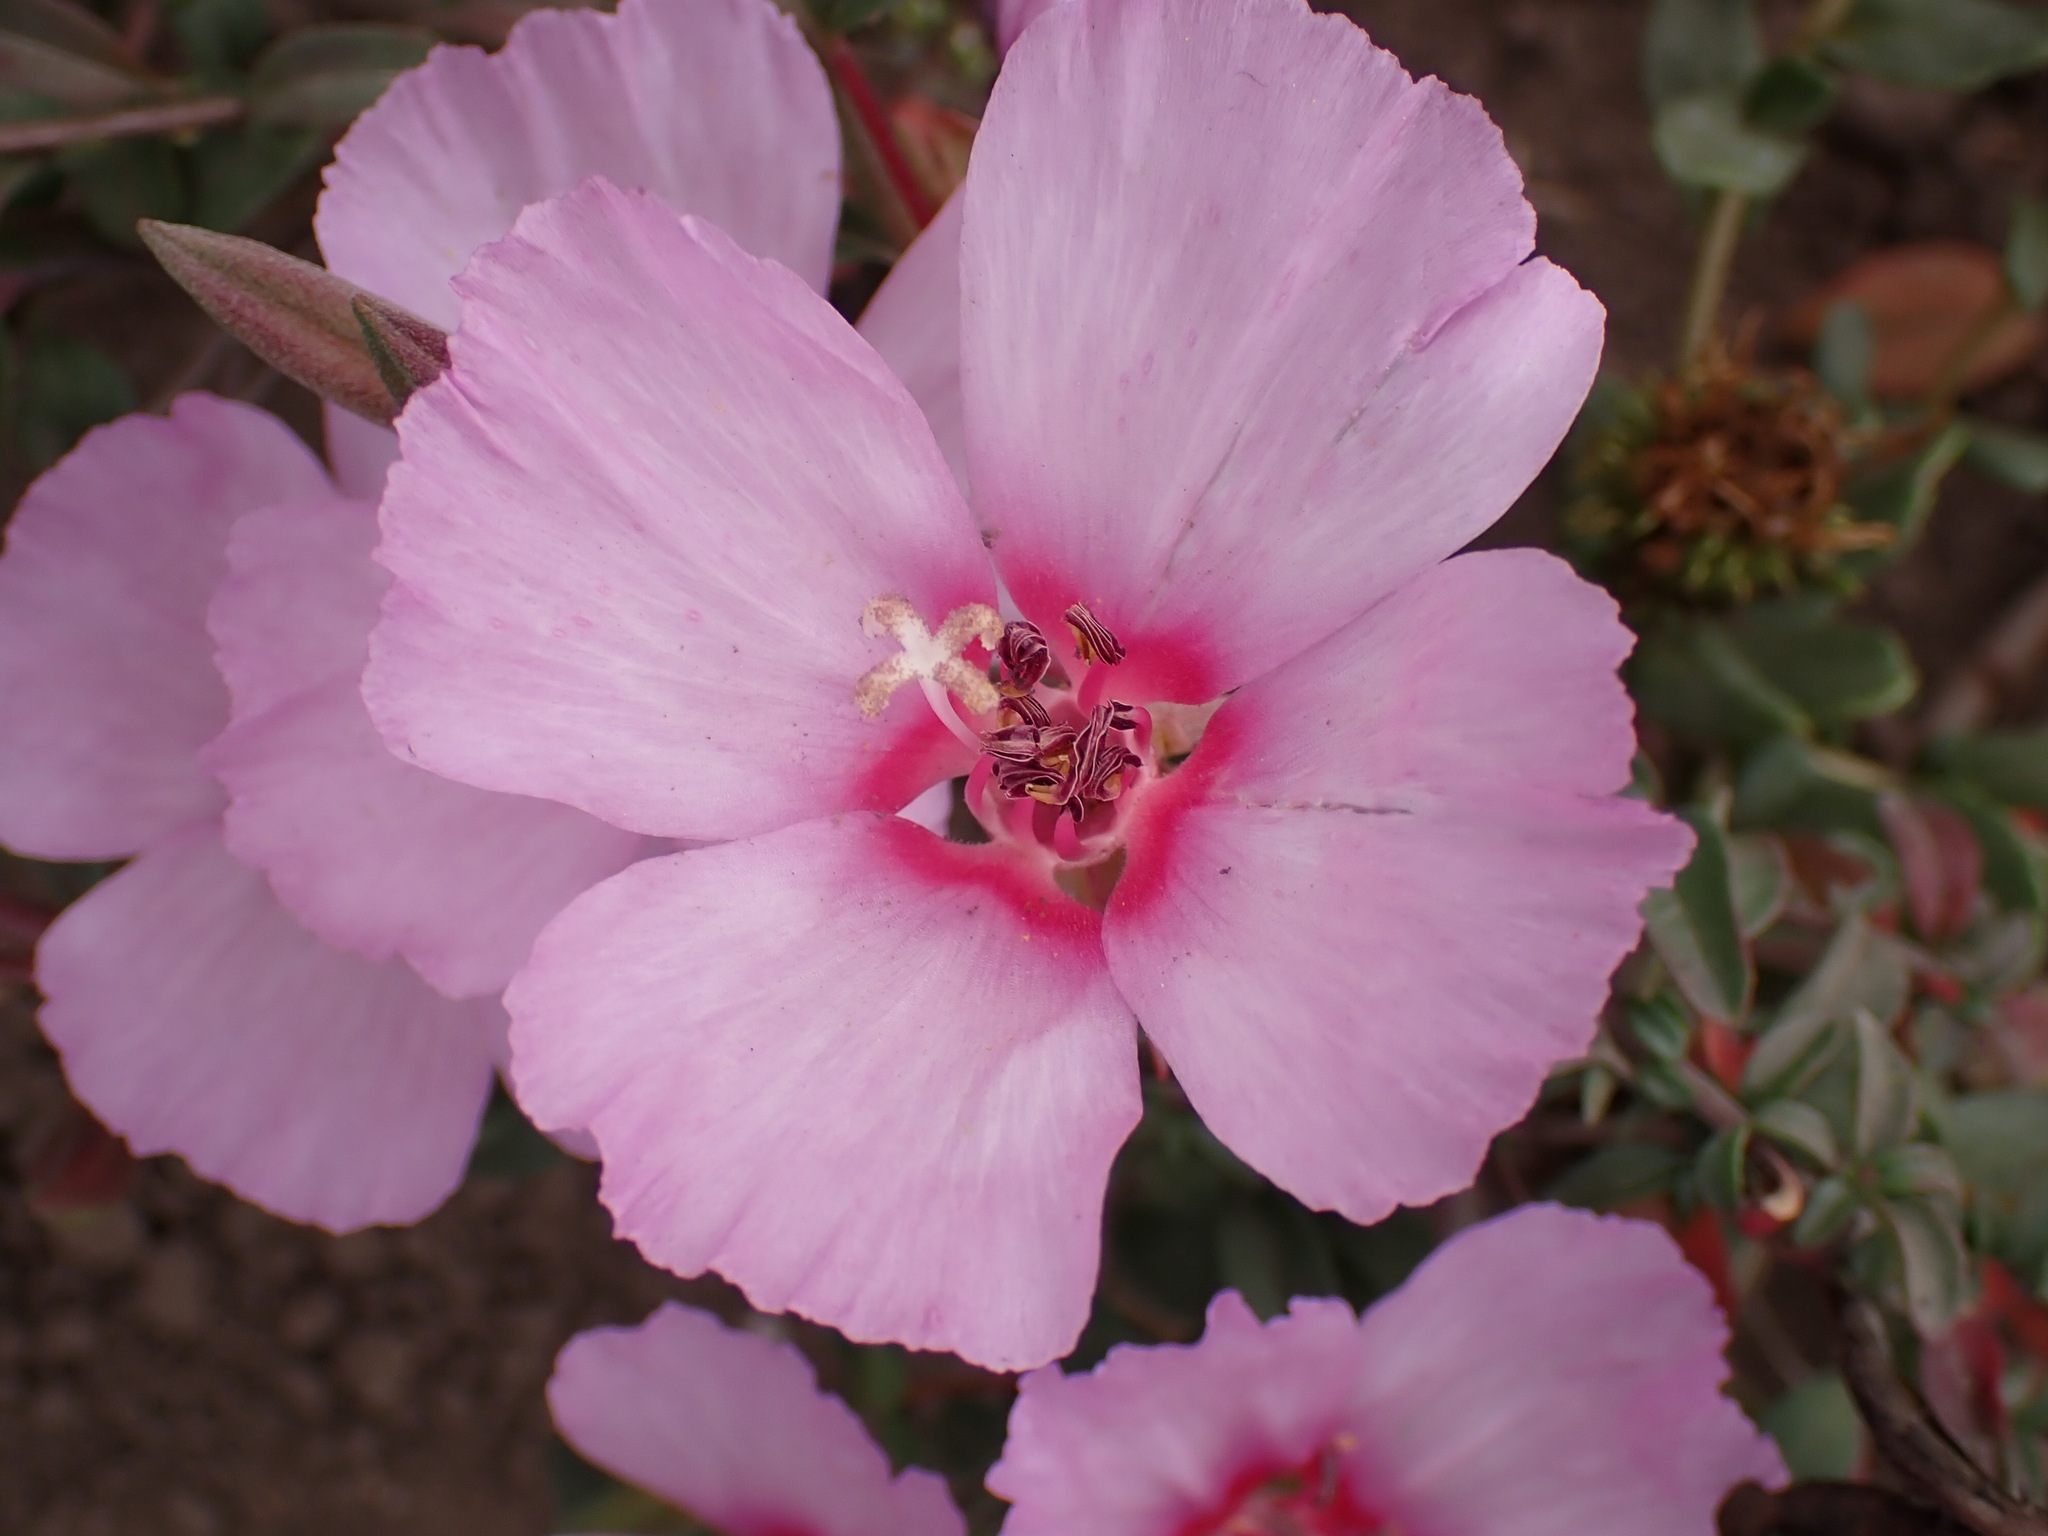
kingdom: Plantae
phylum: Tracheophyta
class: Magnoliopsida
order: Myrtales
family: Onagraceae
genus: Clarkia
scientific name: Clarkia rubicunda
